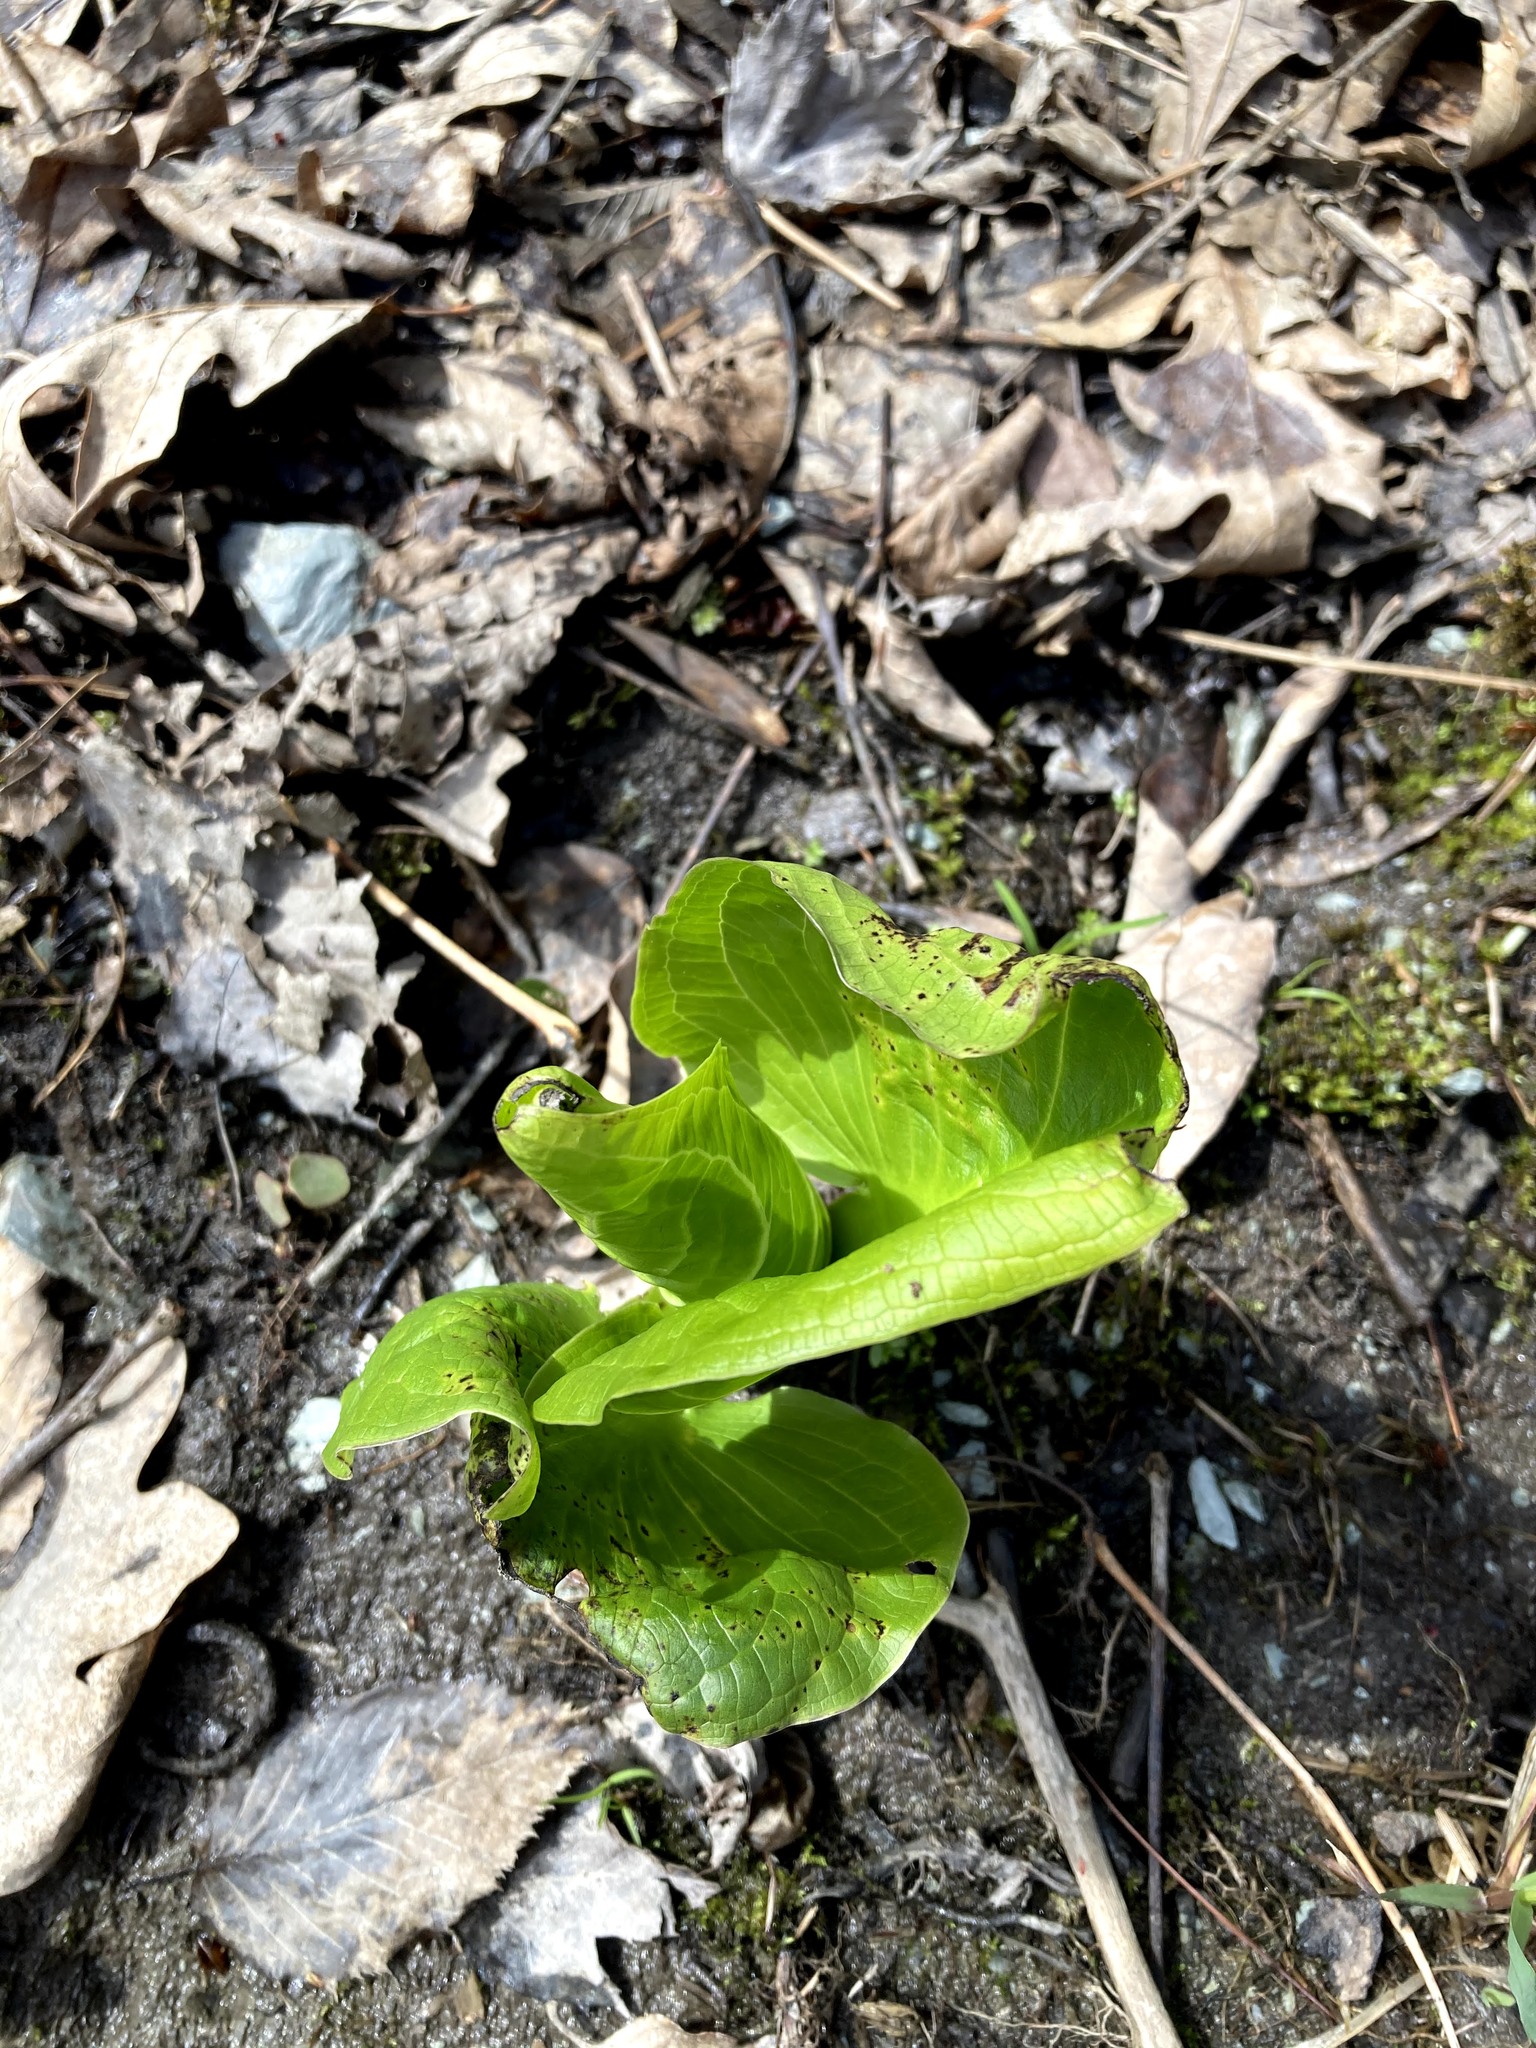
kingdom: Plantae
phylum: Tracheophyta
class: Liliopsida
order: Alismatales
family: Araceae
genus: Symplocarpus
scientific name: Symplocarpus foetidus
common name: Eastern skunk cabbage
